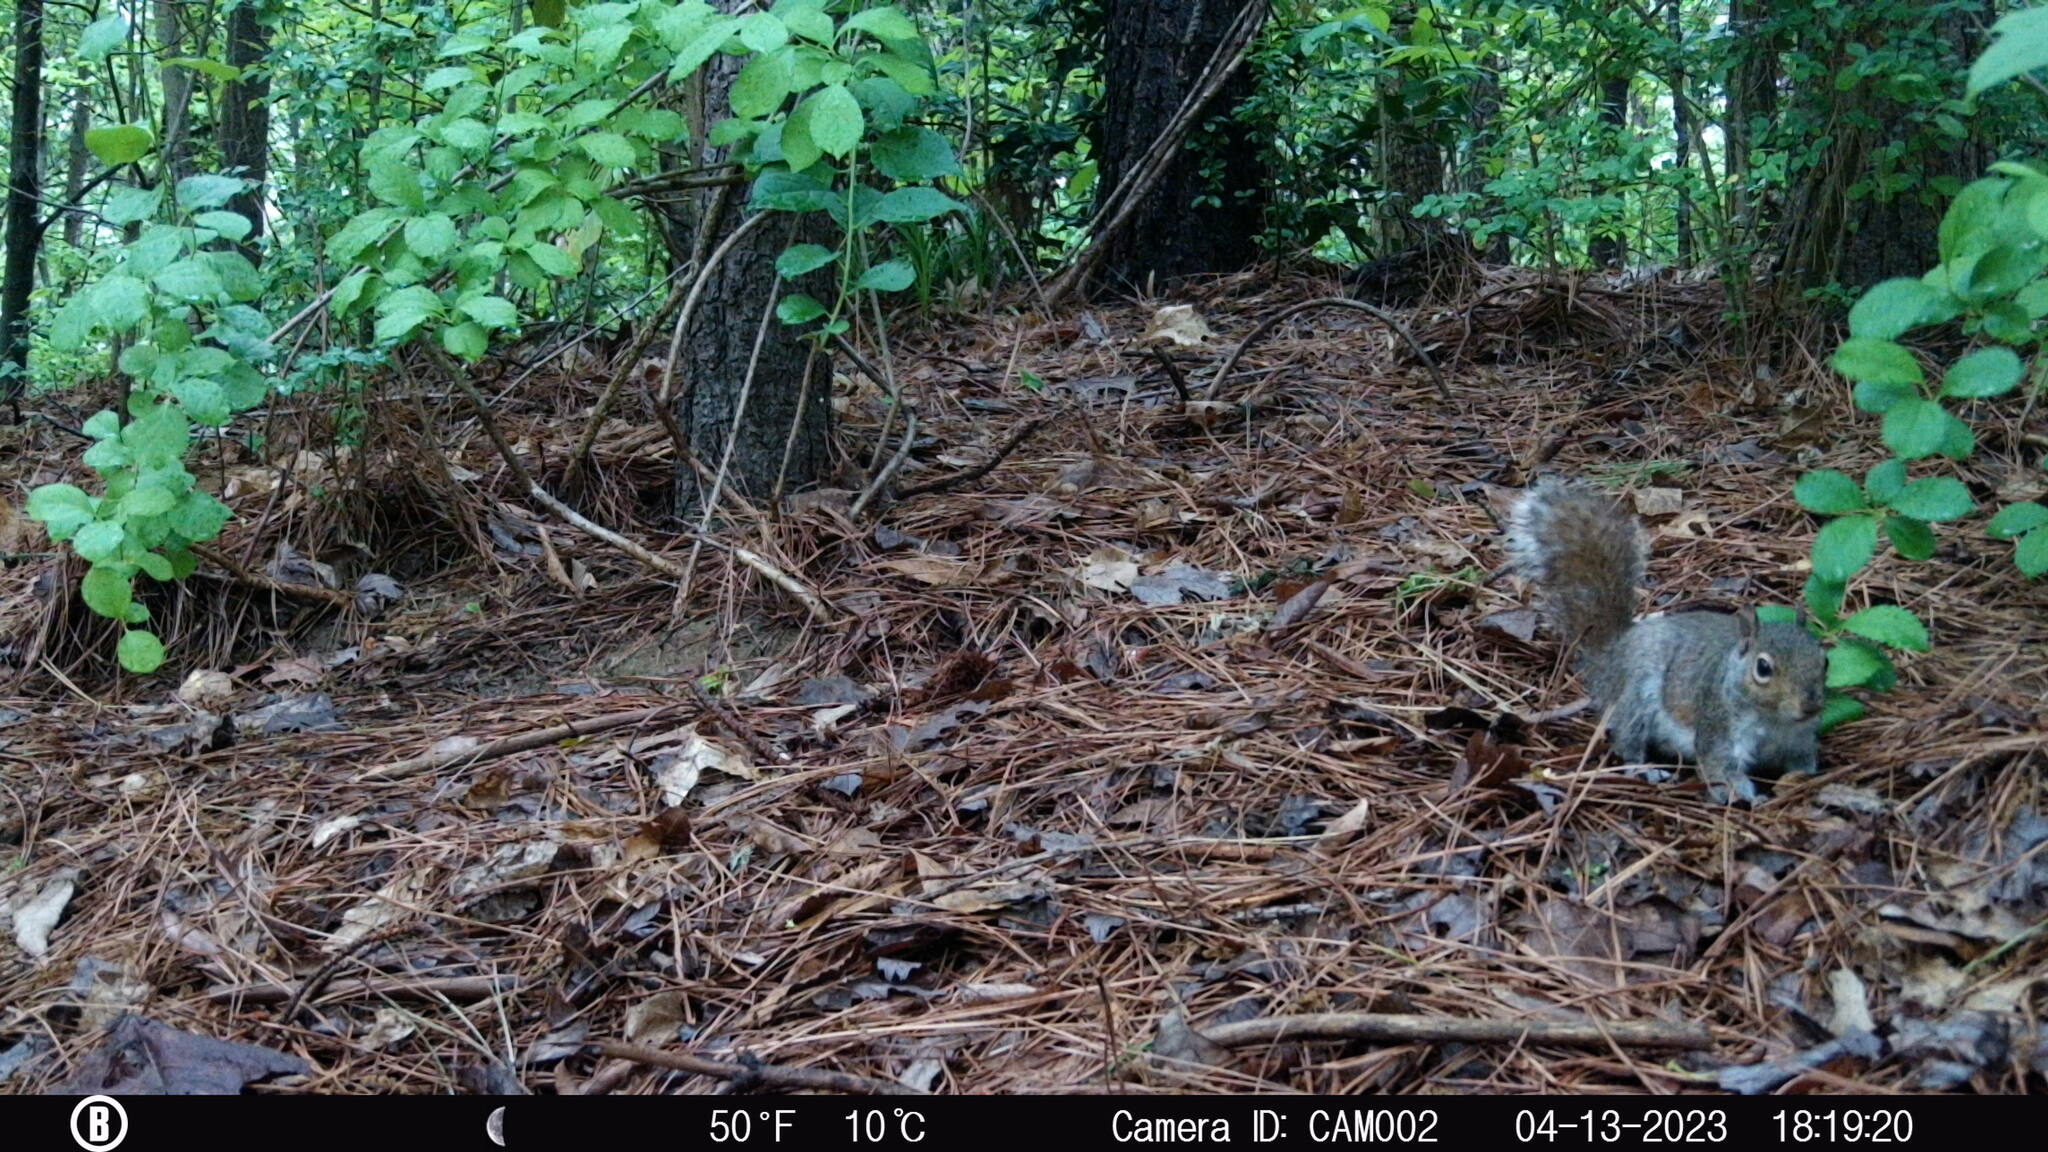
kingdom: Animalia
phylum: Chordata
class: Mammalia
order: Rodentia
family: Sciuridae
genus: Sciurus
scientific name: Sciurus carolinensis
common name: Eastern gray squirrel
